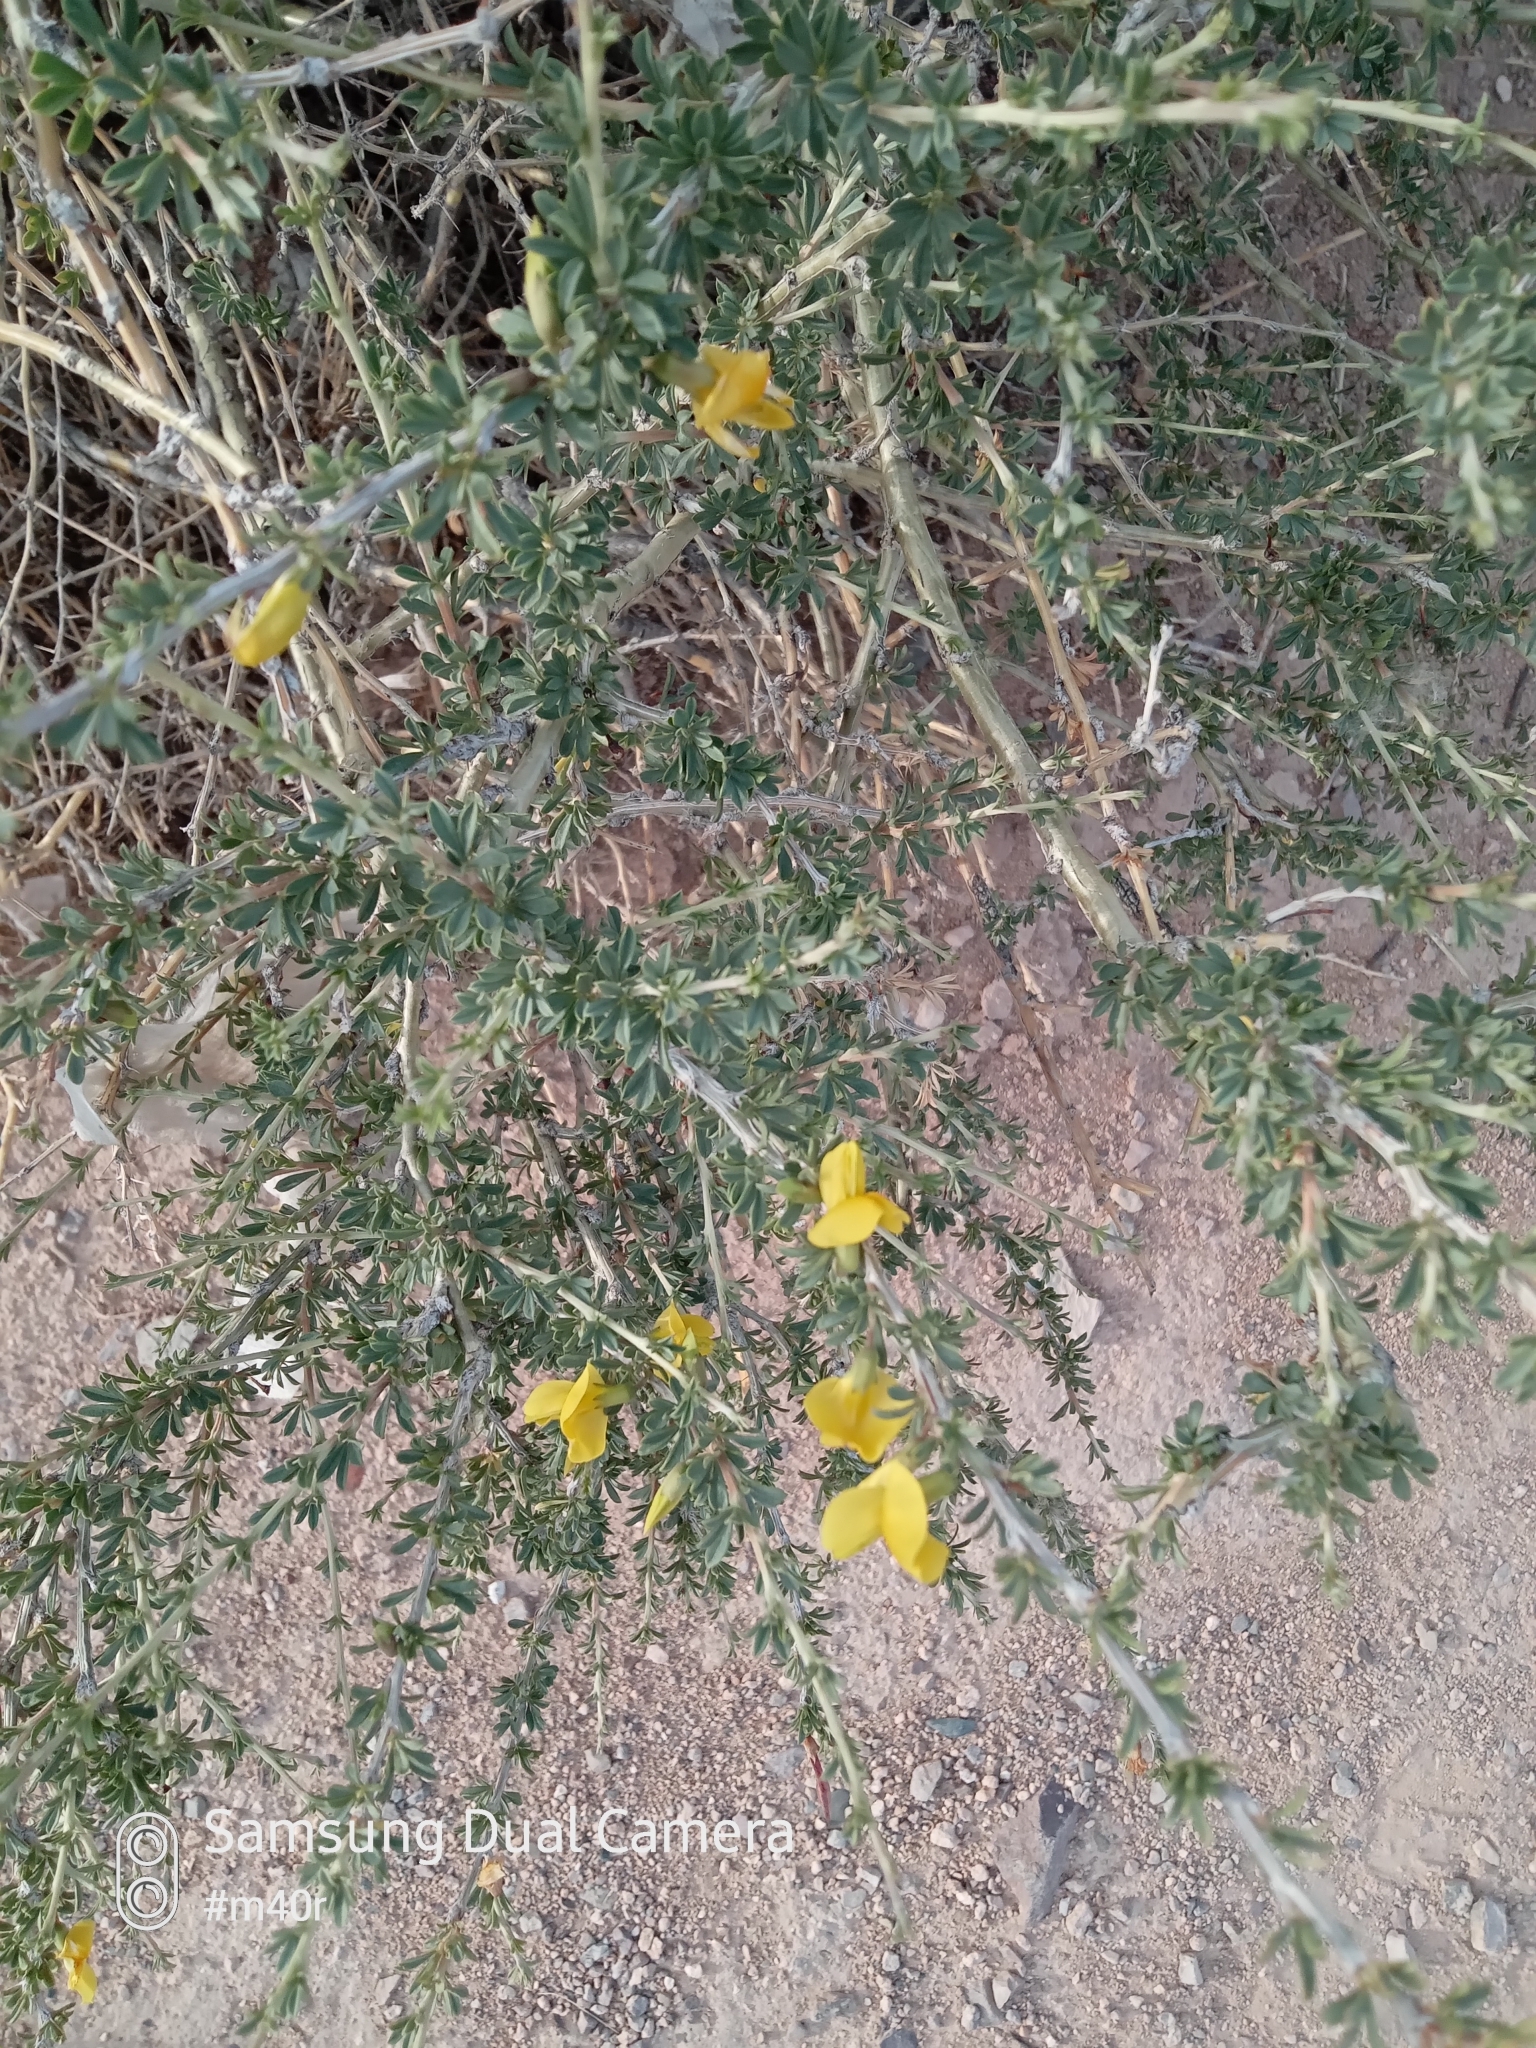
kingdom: Plantae
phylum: Tracheophyta
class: Magnoliopsida
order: Fabales
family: Fabaceae
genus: Caragana
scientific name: Caragana balchaschensis
